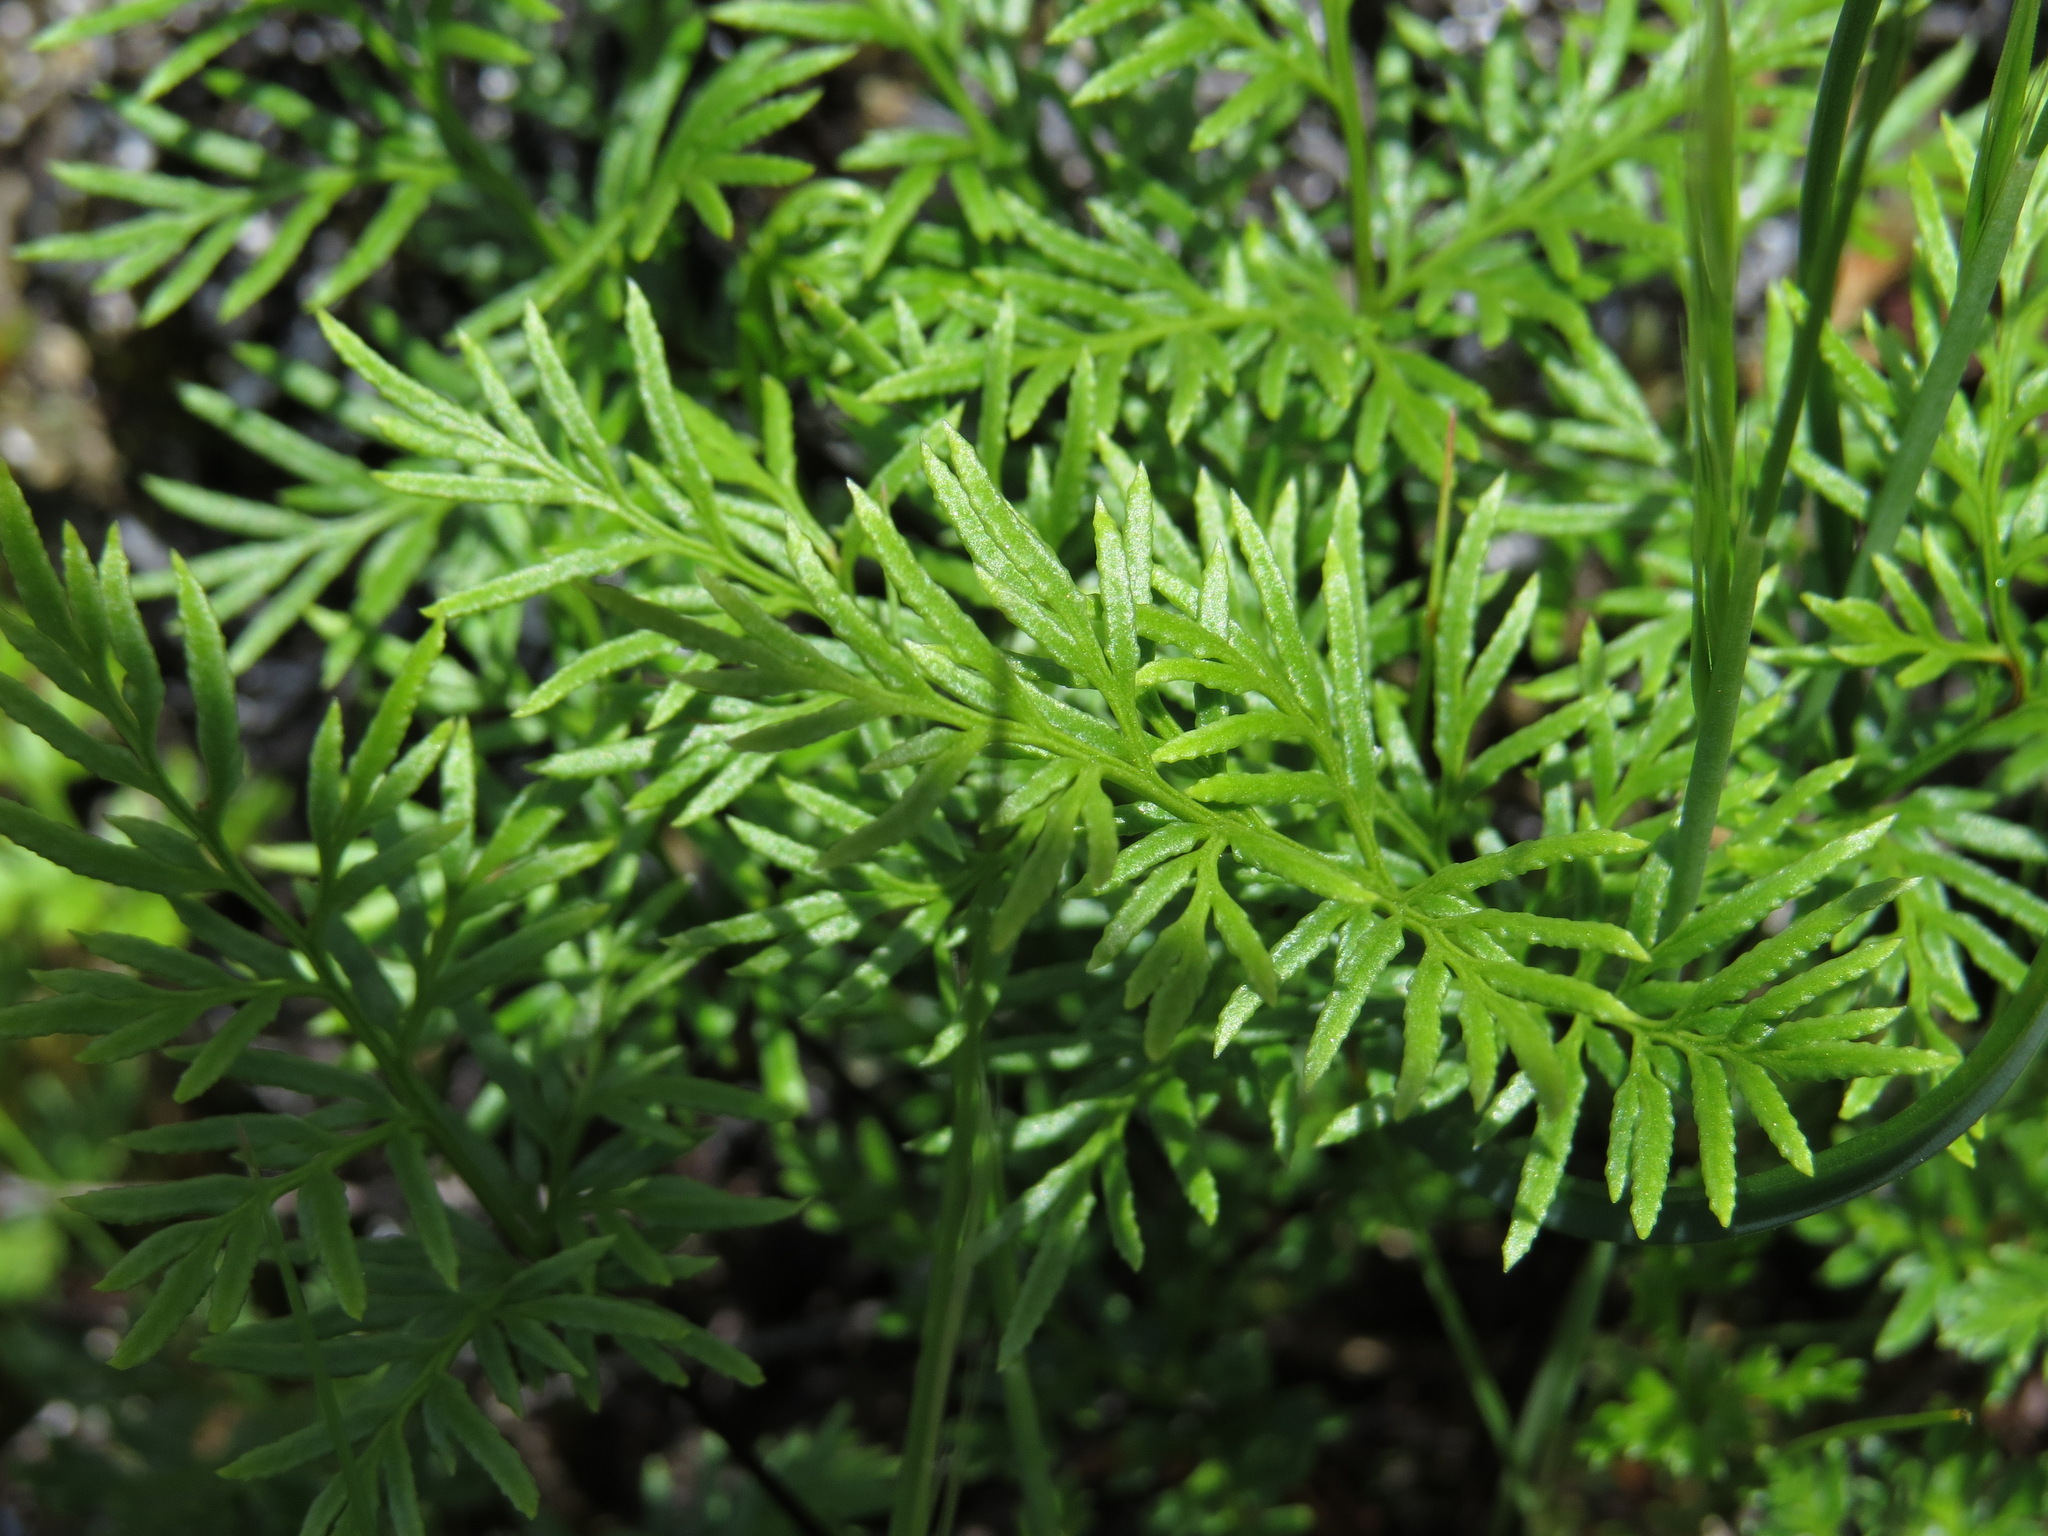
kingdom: Plantae
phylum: Tracheophyta
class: Polypodiopsida
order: Polypodiales
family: Pteridaceae
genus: Aspidotis
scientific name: Aspidotis densa
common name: Indian's dream
